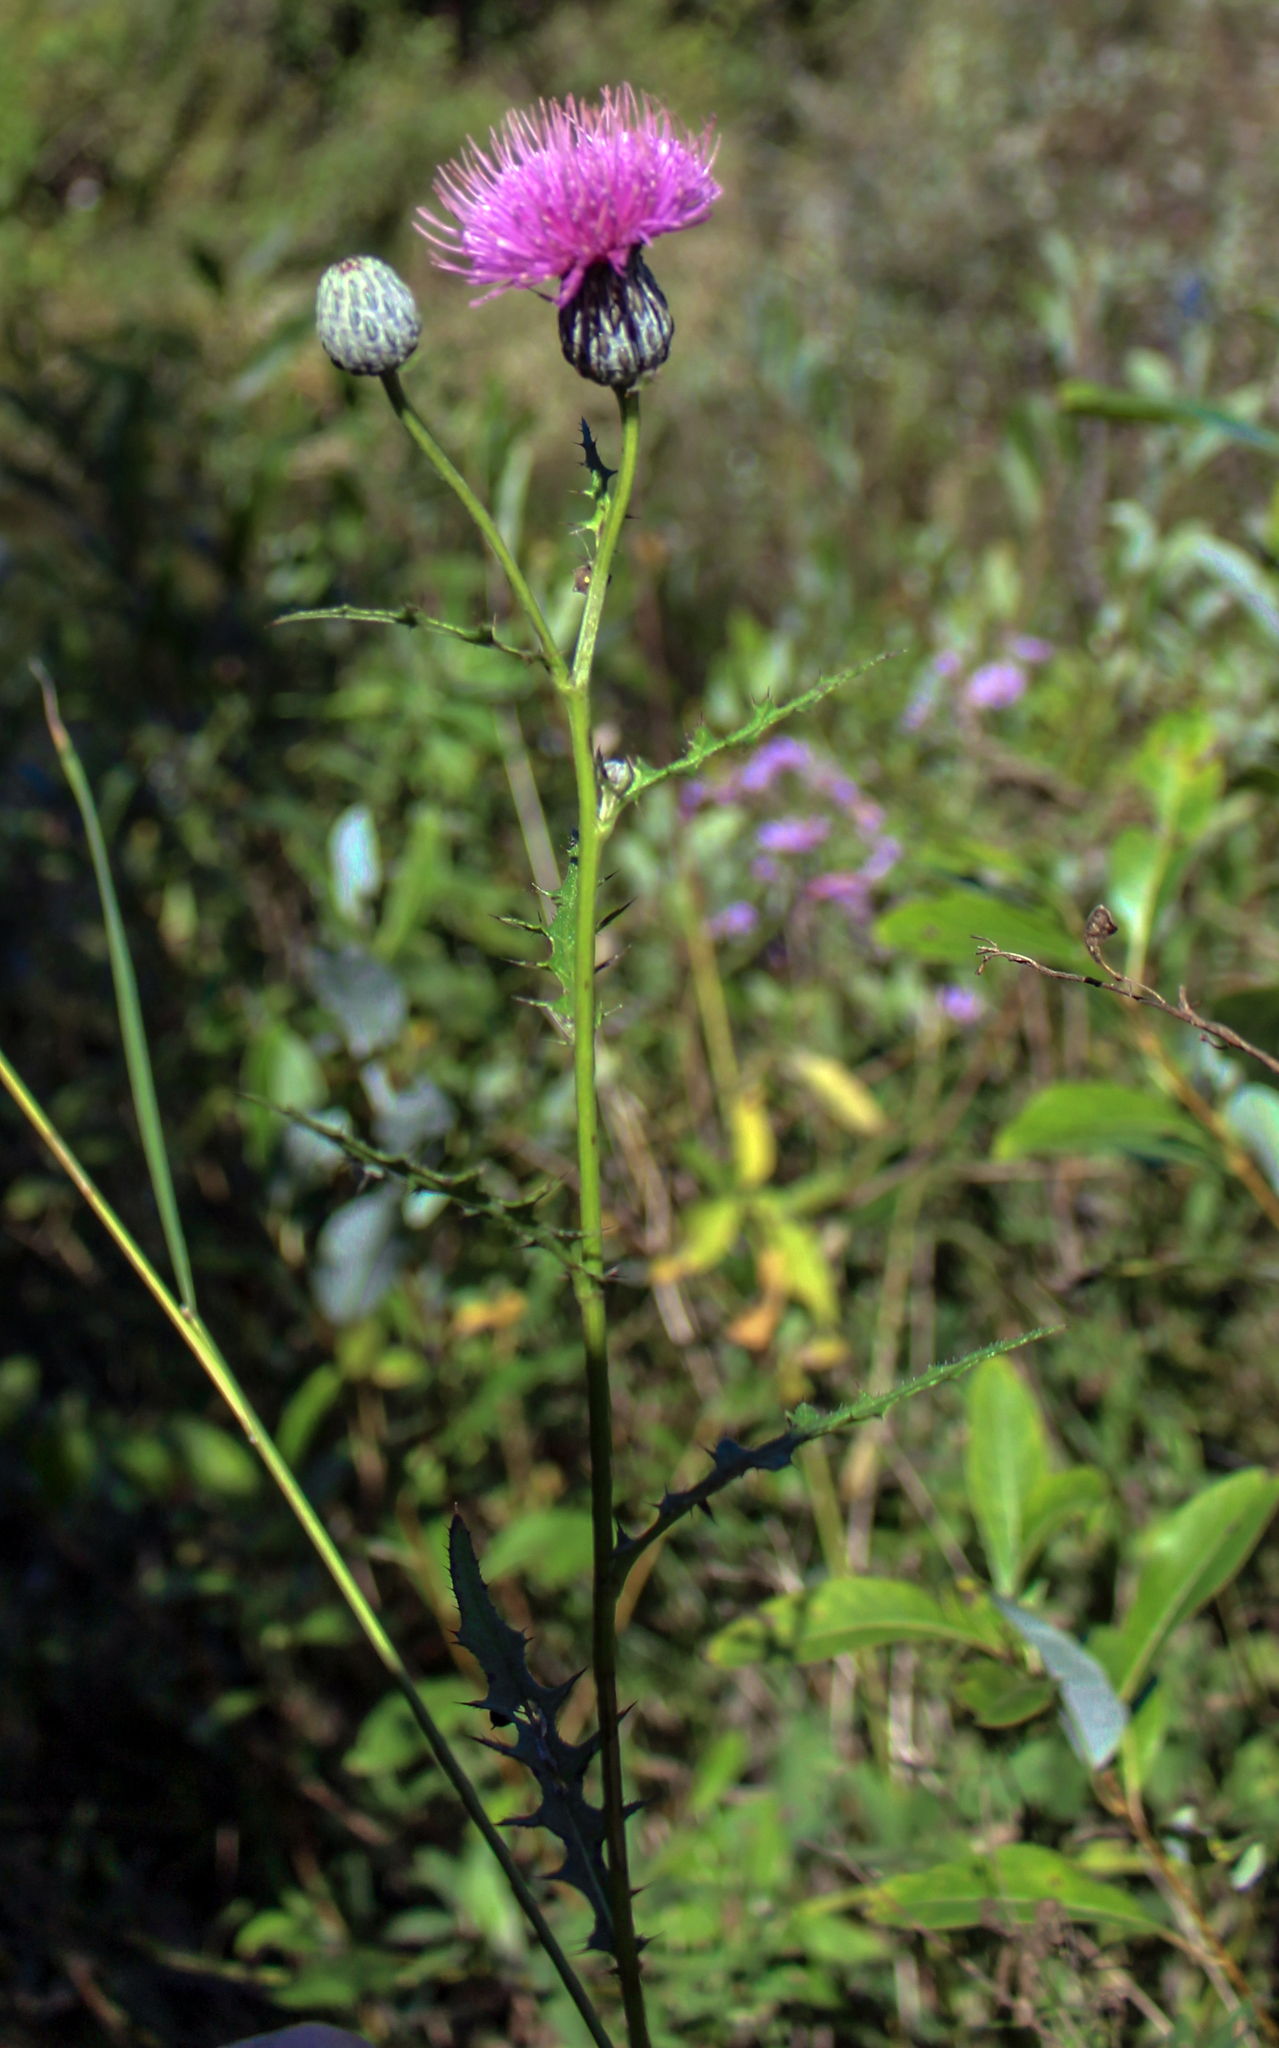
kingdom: Plantae
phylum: Tracheophyta
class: Magnoliopsida
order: Asterales
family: Asteraceae
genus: Cirsium
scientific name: Cirsium muticum
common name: Dunce-nettle
